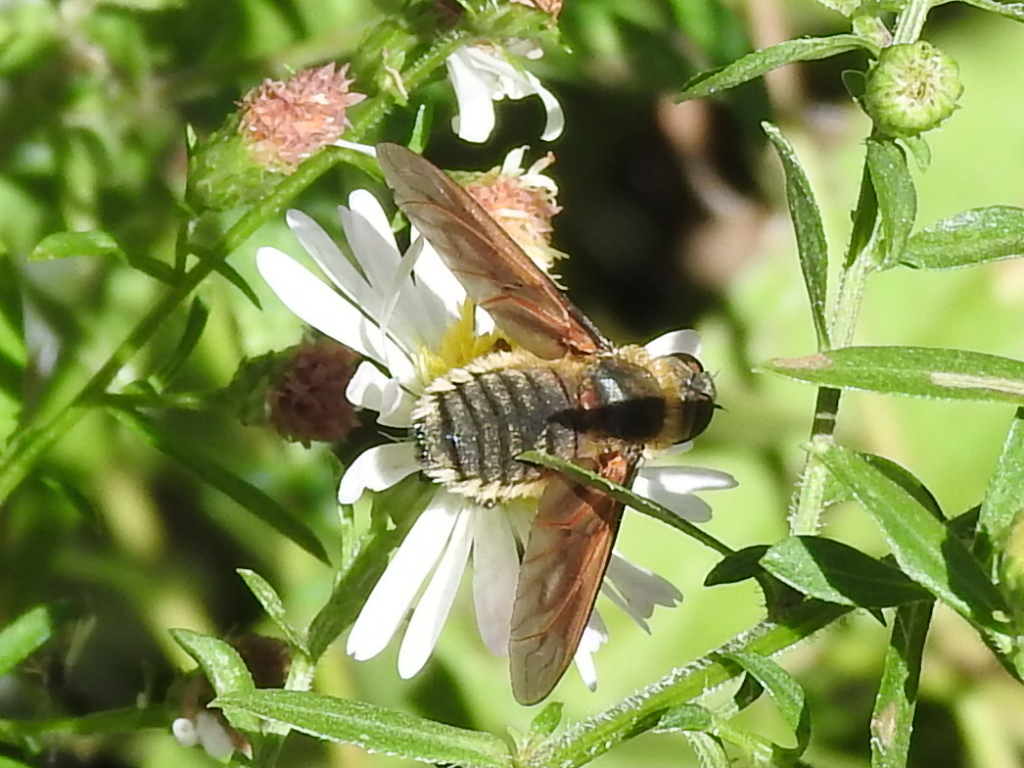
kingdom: Animalia
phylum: Arthropoda
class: Insecta
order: Diptera
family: Bombyliidae
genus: Poecilanthrax
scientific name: Poecilanthrax lucifer
